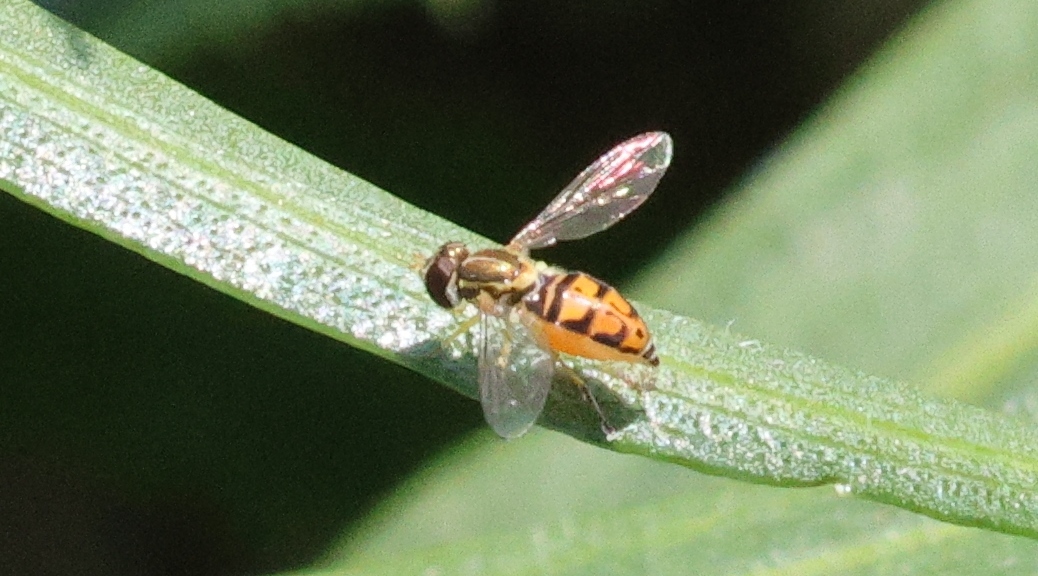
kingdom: Animalia
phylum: Arthropoda
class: Insecta
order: Diptera
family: Syrphidae
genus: Toxomerus
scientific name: Toxomerus marginatus
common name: Syrphid fly
